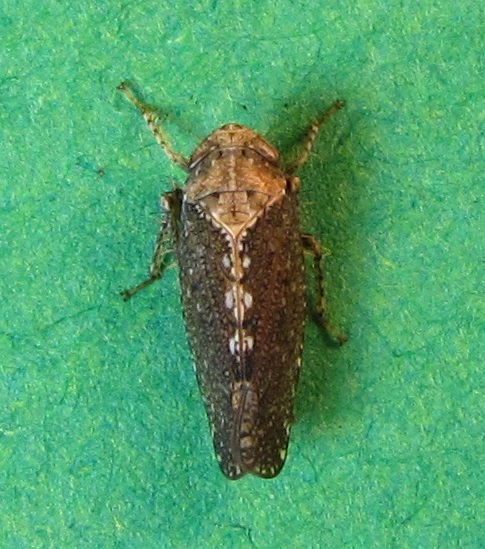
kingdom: Animalia
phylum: Arthropoda
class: Insecta
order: Hemiptera
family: Cicadellidae
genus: Excultanus
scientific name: Excultanus excultus
